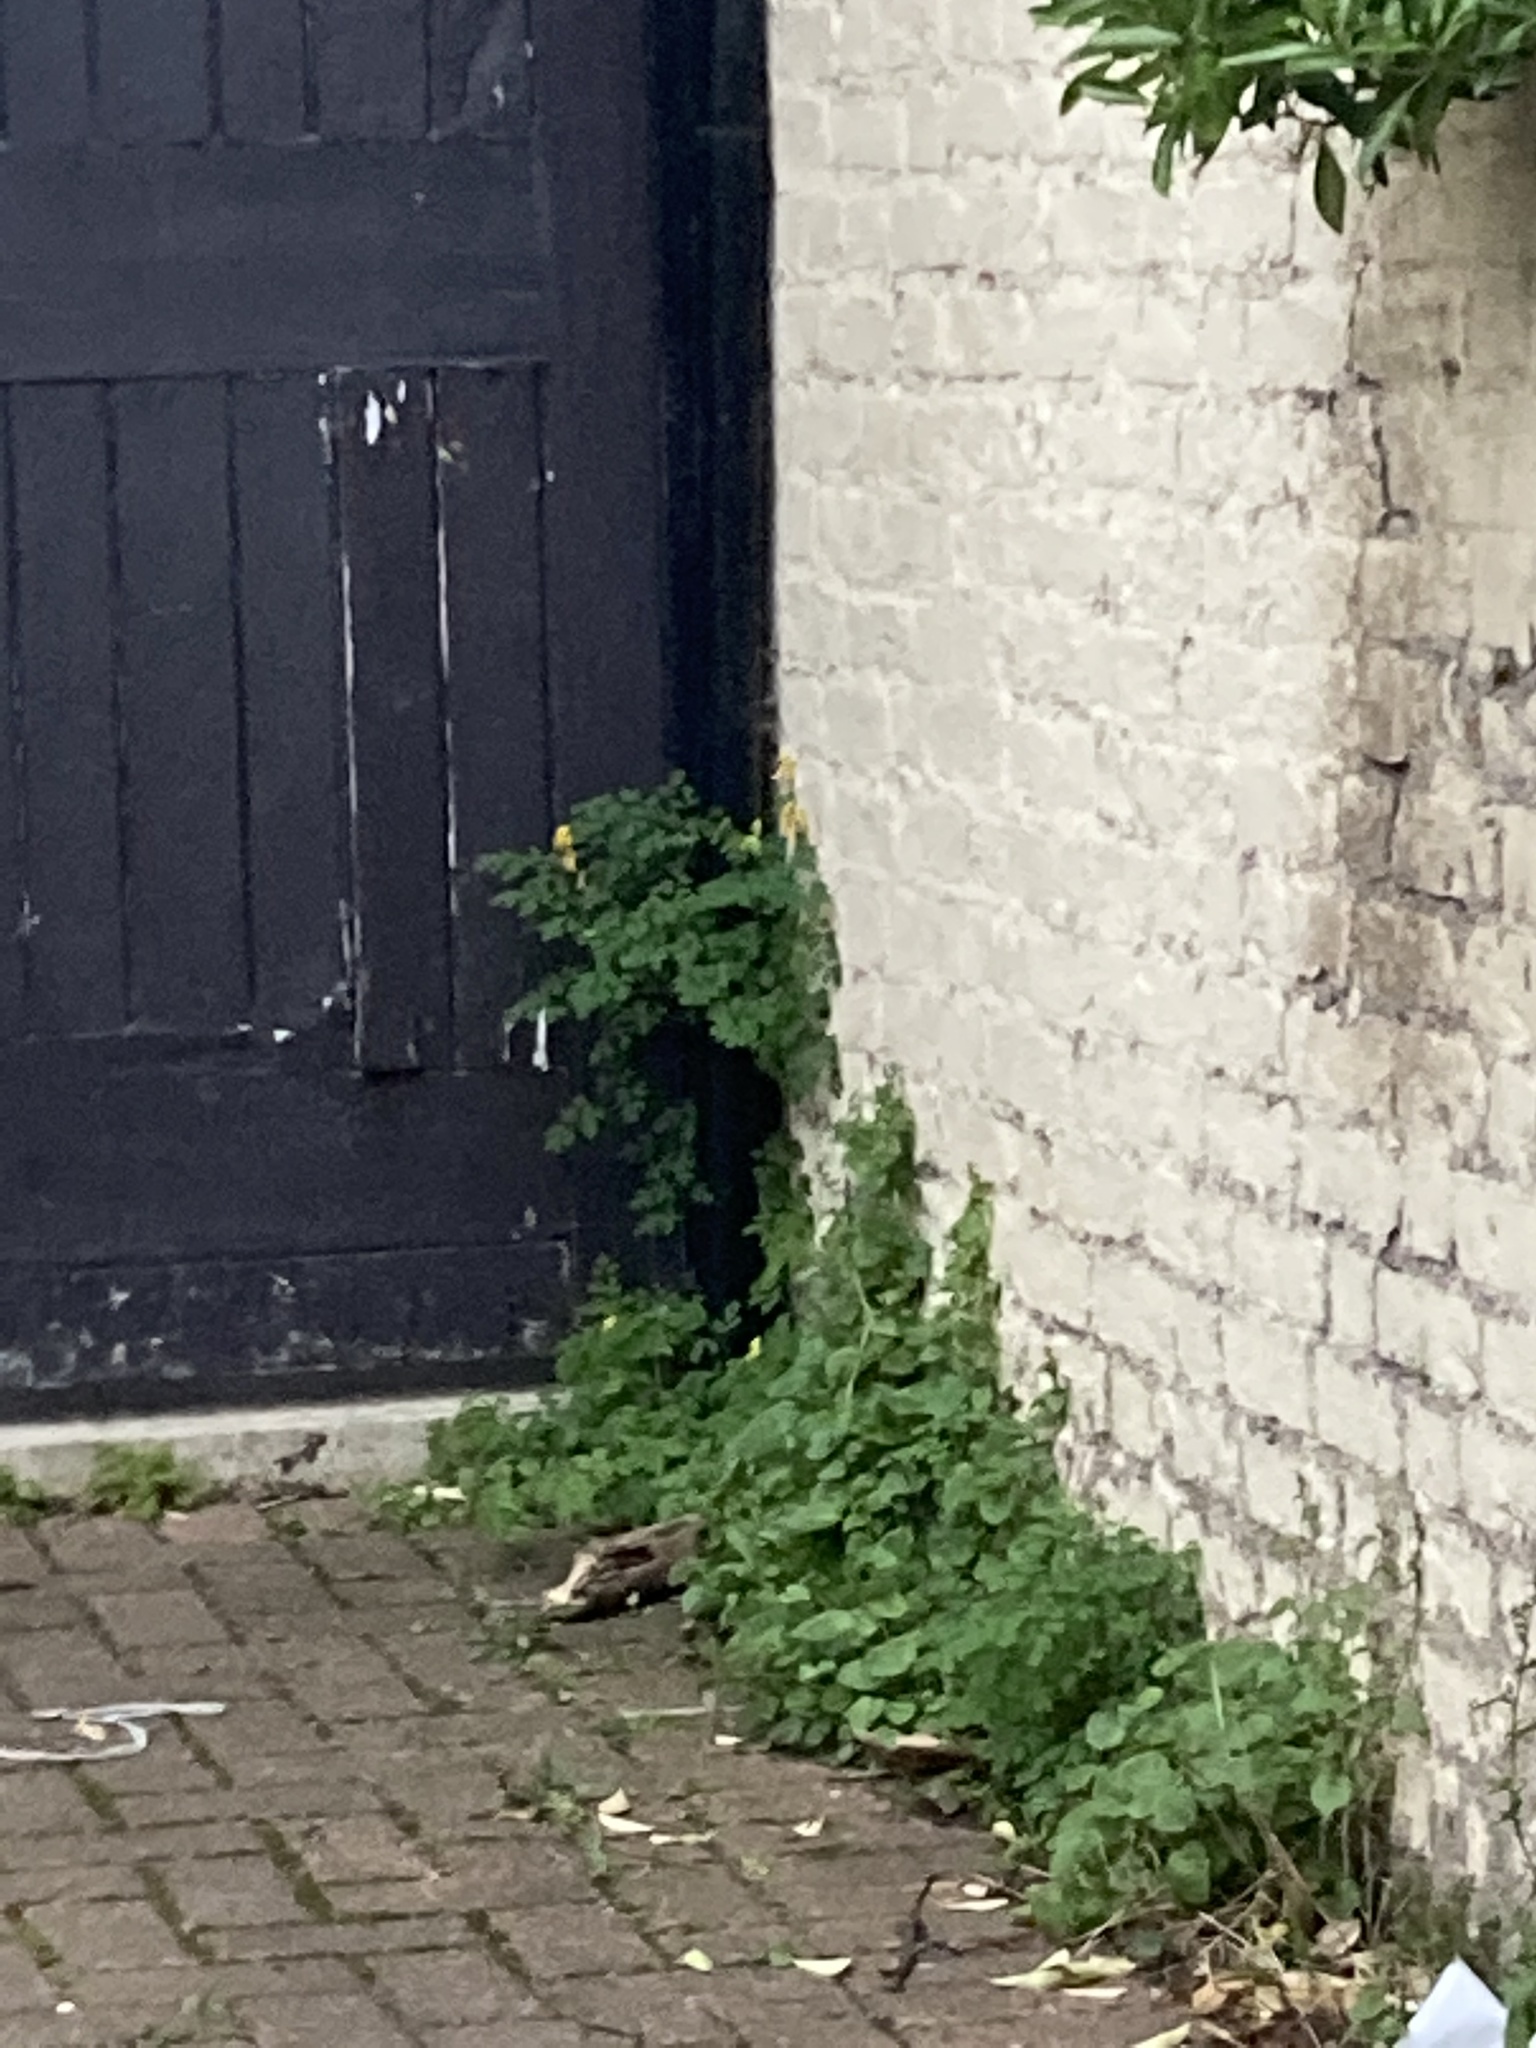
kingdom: Plantae
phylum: Tracheophyta
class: Magnoliopsida
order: Ranunculales
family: Papaveraceae
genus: Pseudofumaria
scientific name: Pseudofumaria lutea
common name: Yellow corydalis
